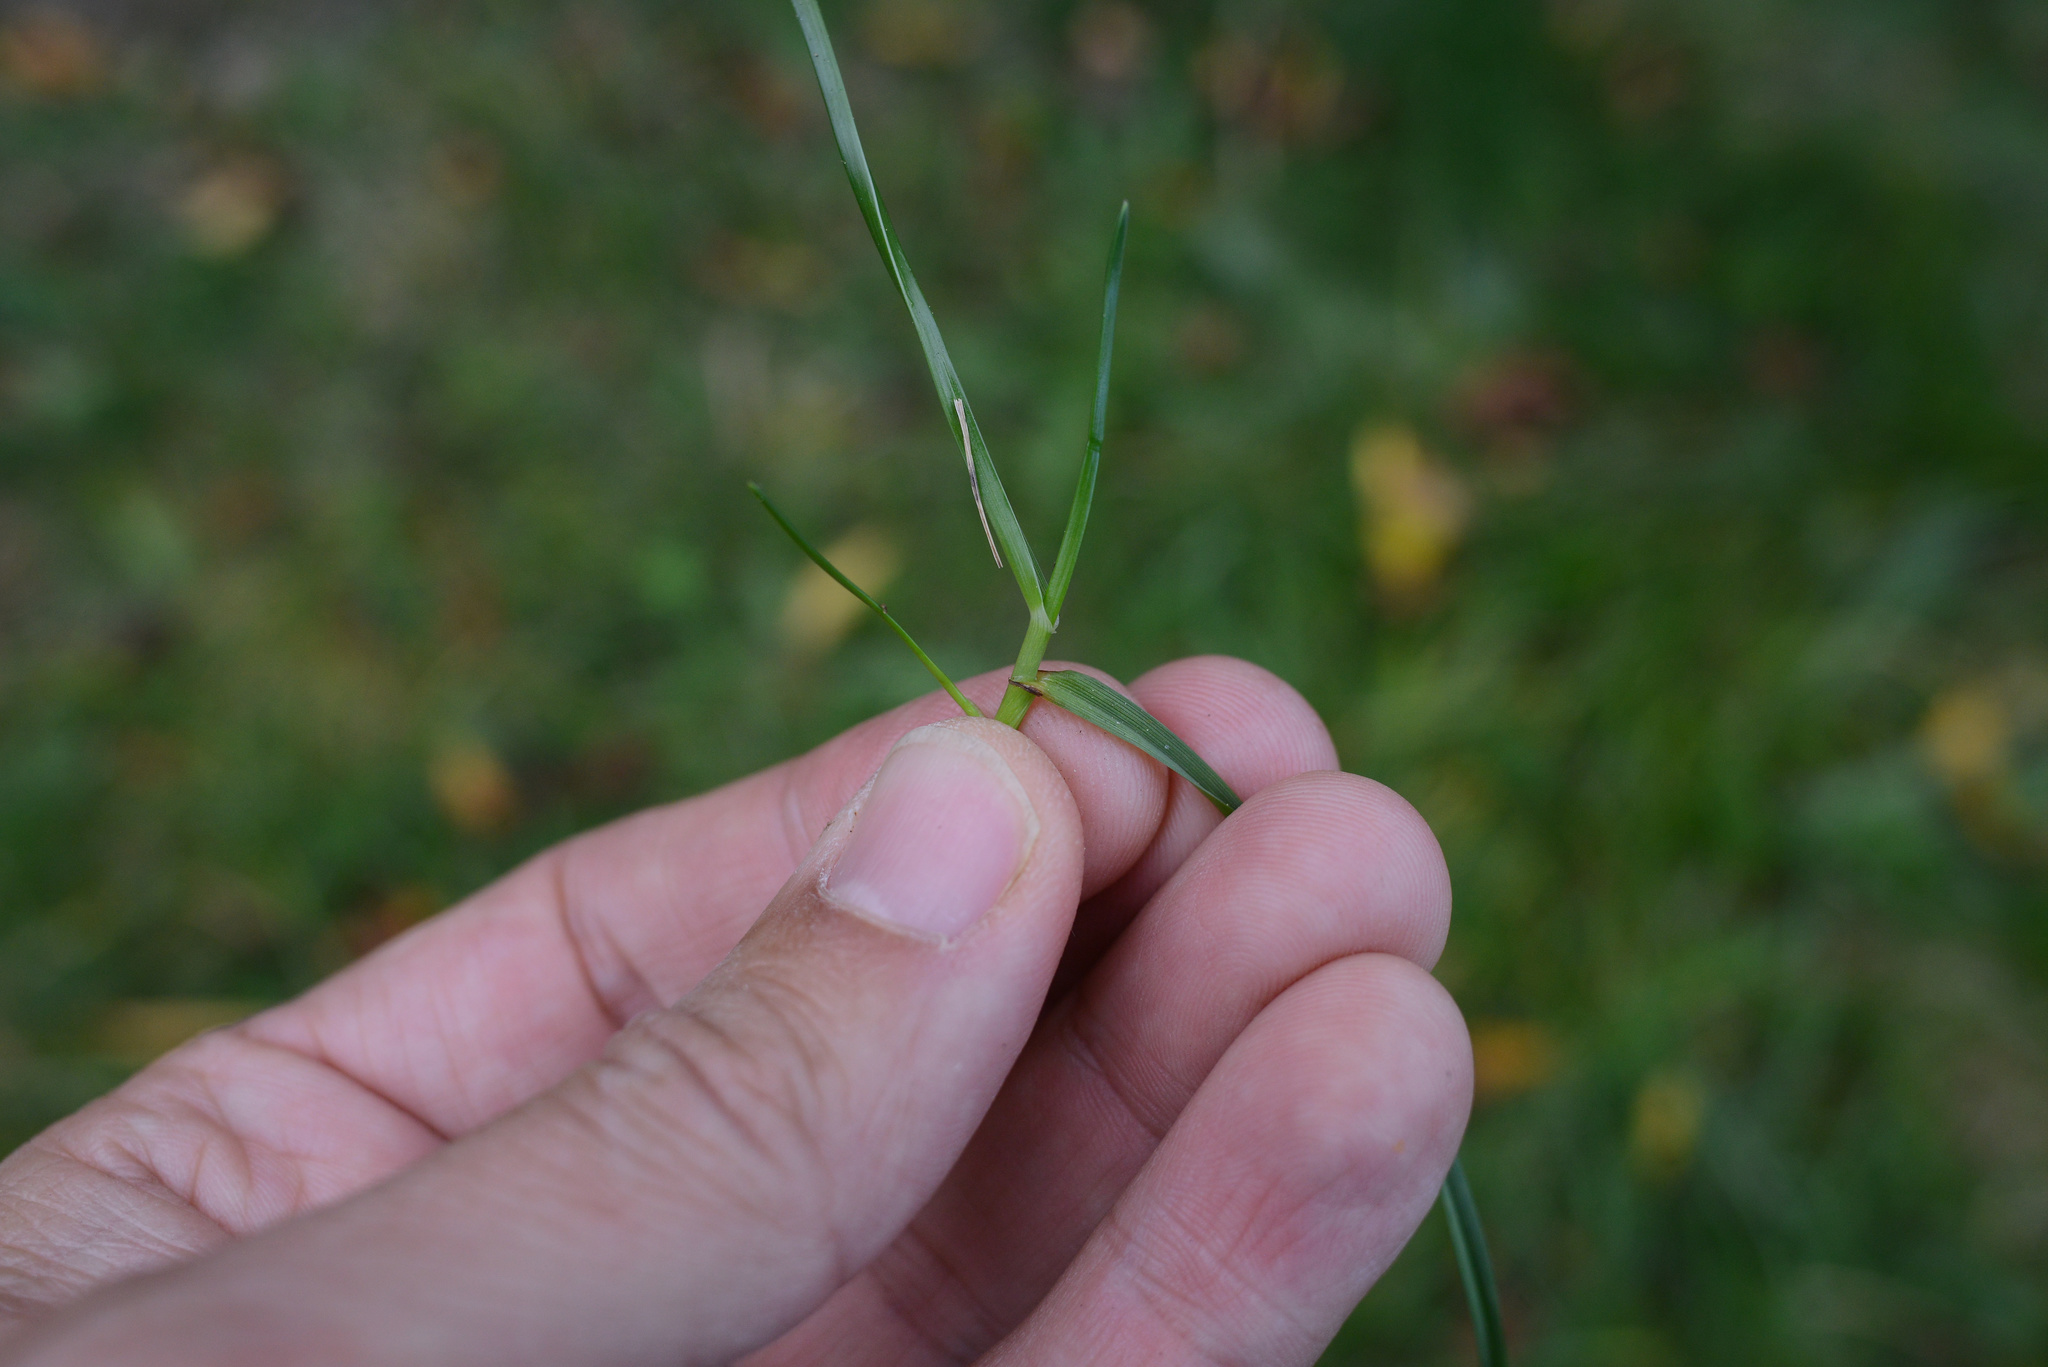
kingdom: Plantae
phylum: Tracheophyta
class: Liliopsida
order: Poales
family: Poaceae
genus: Agrostis
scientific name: Agrostis capillaris
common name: Colonial bentgrass
